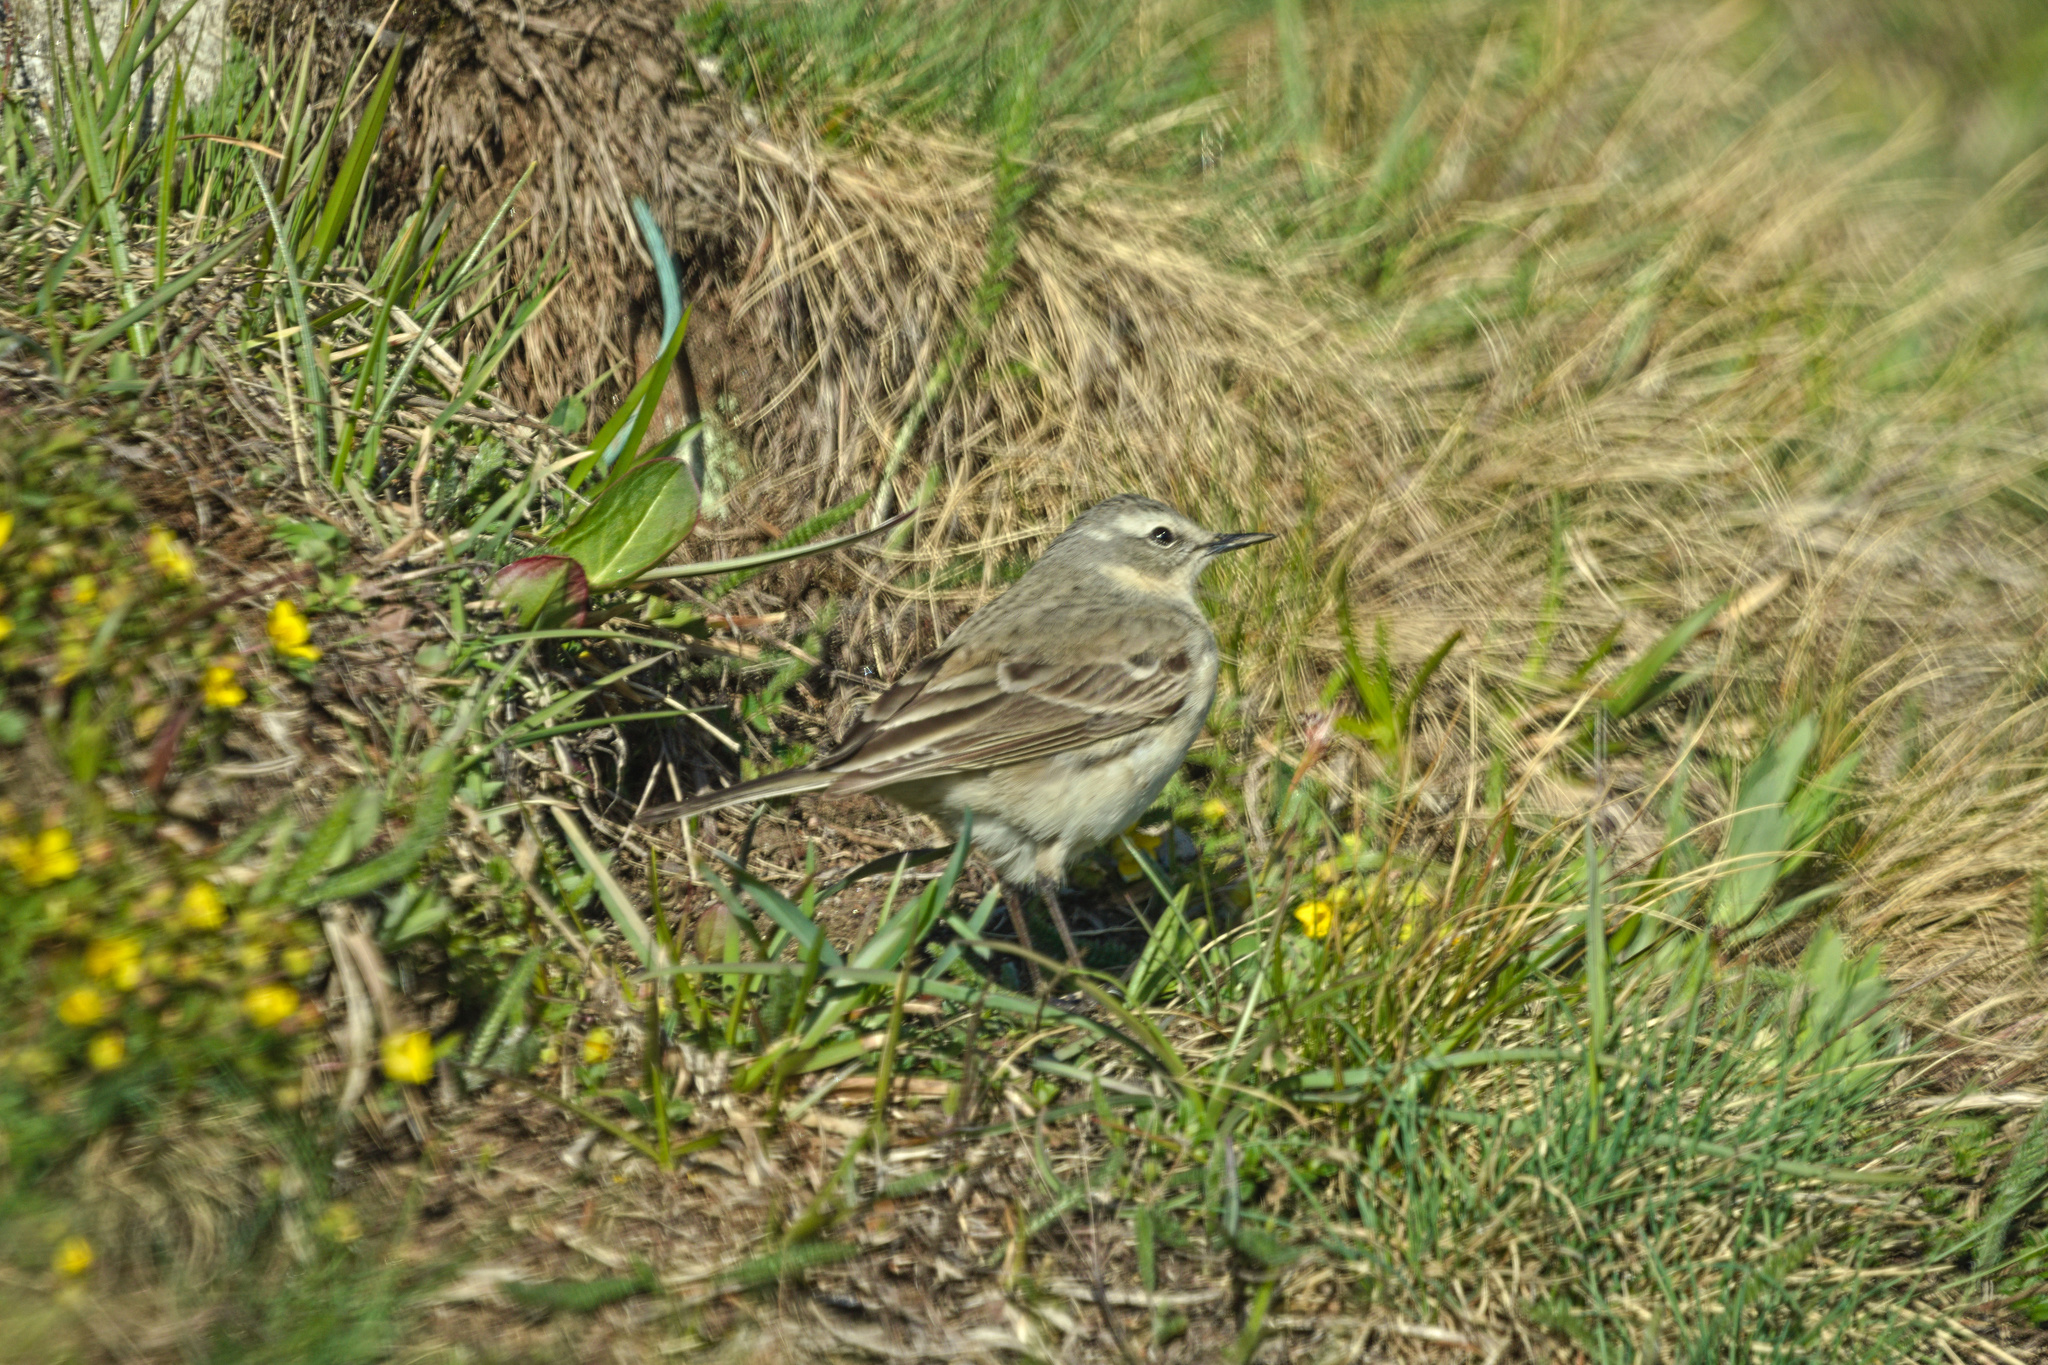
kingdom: Animalia
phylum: Chordata
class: Aves
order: Passeriformes
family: Motacillidae
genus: Anthus
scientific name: Anthus spinoletta
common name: Water pipit
